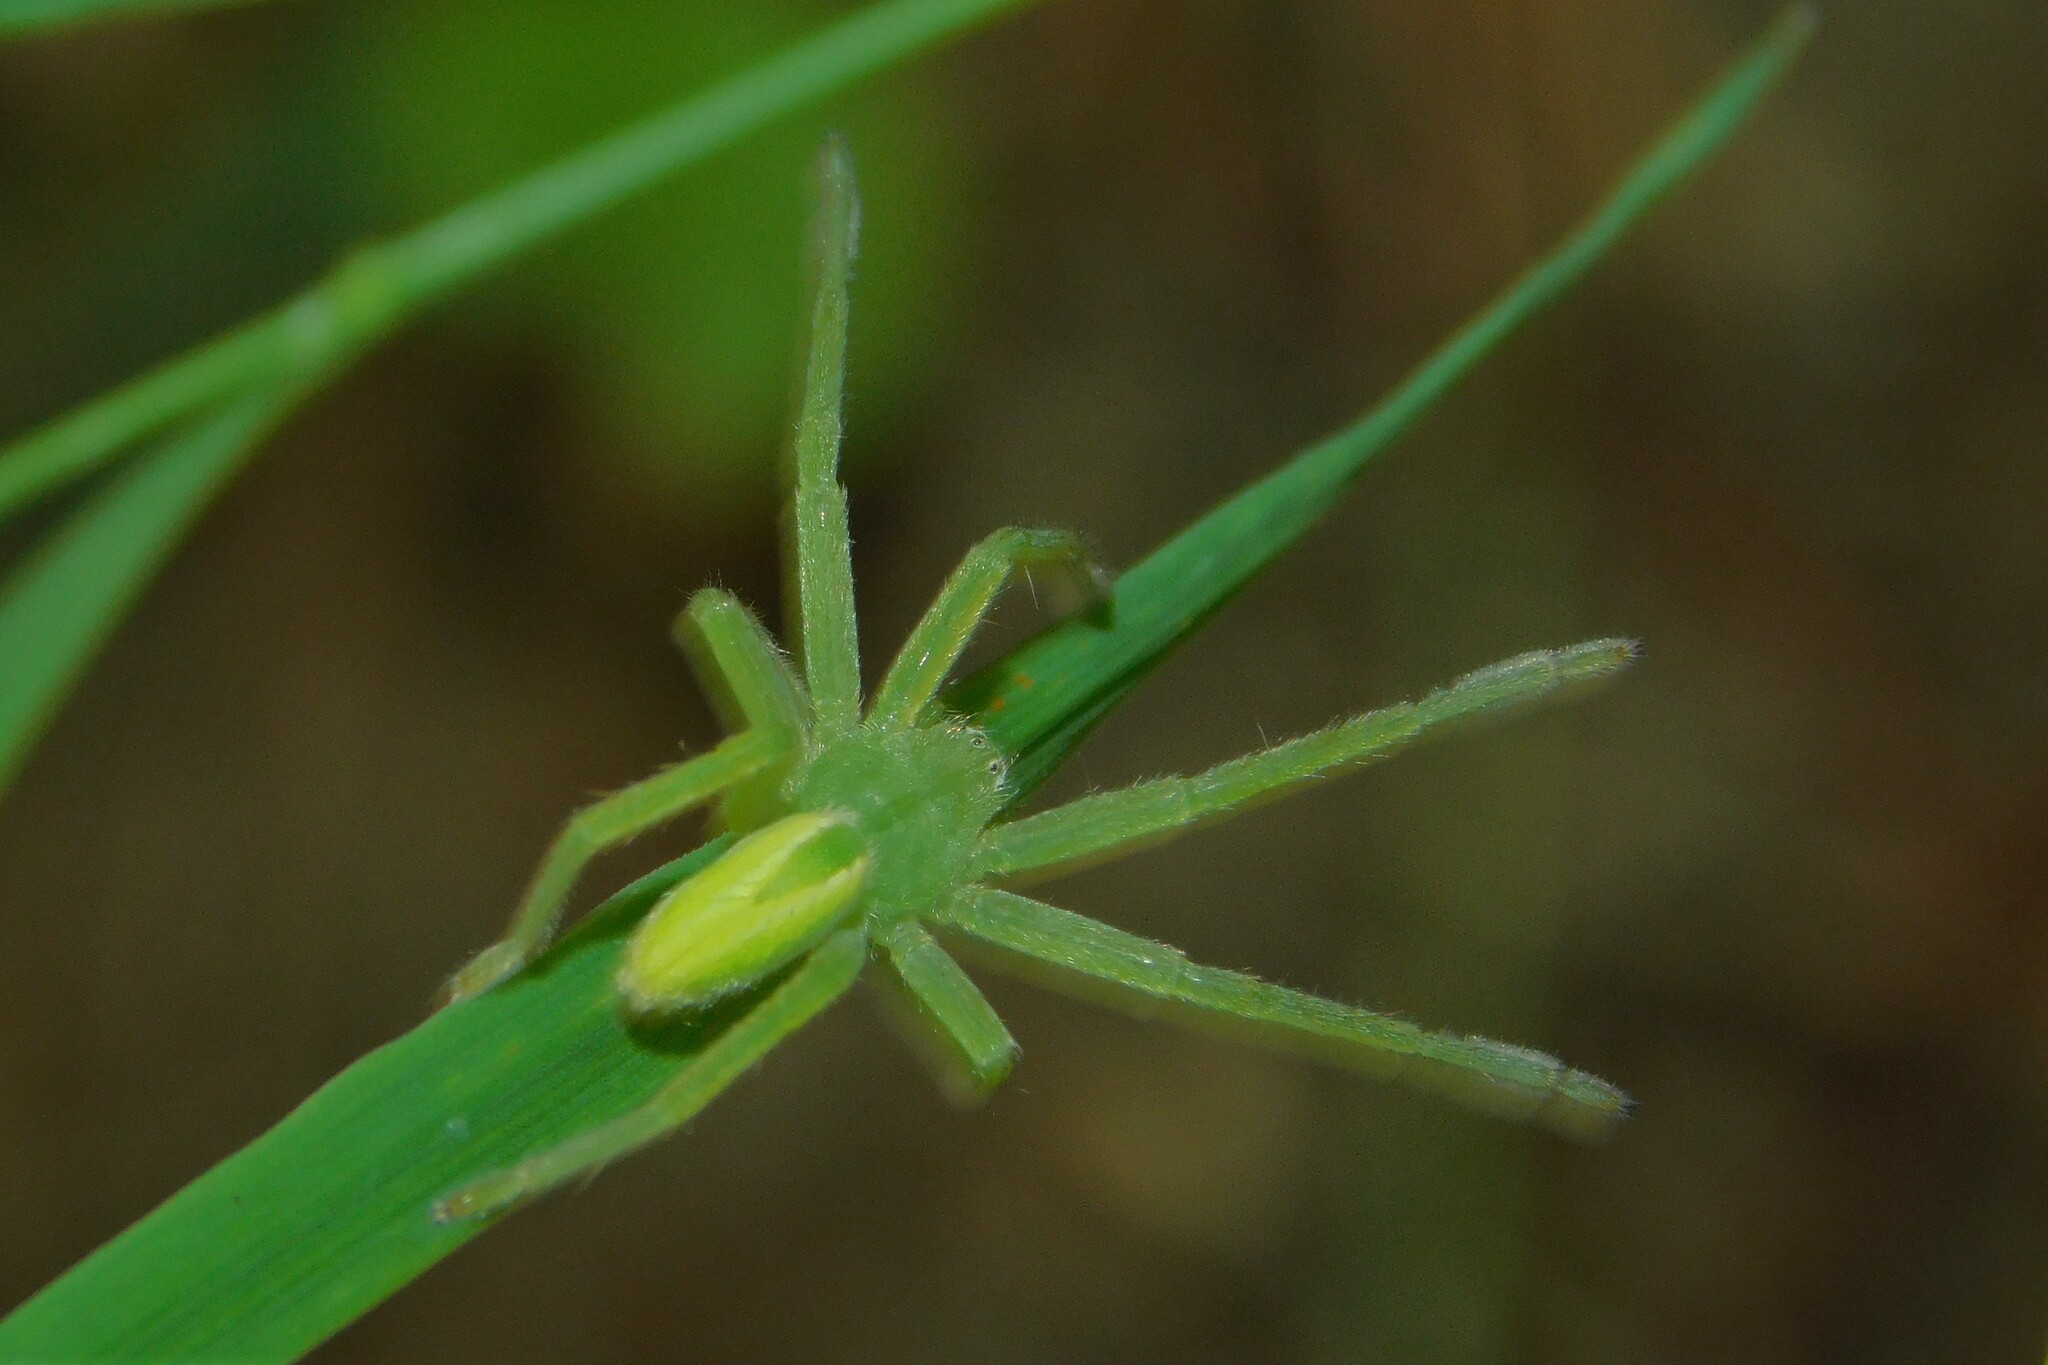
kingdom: Animalia
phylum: Arthropoda
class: Arachnida
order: Araneae
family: Sparassidae
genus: Micrommata
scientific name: Micrommata virescens
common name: Green spider
